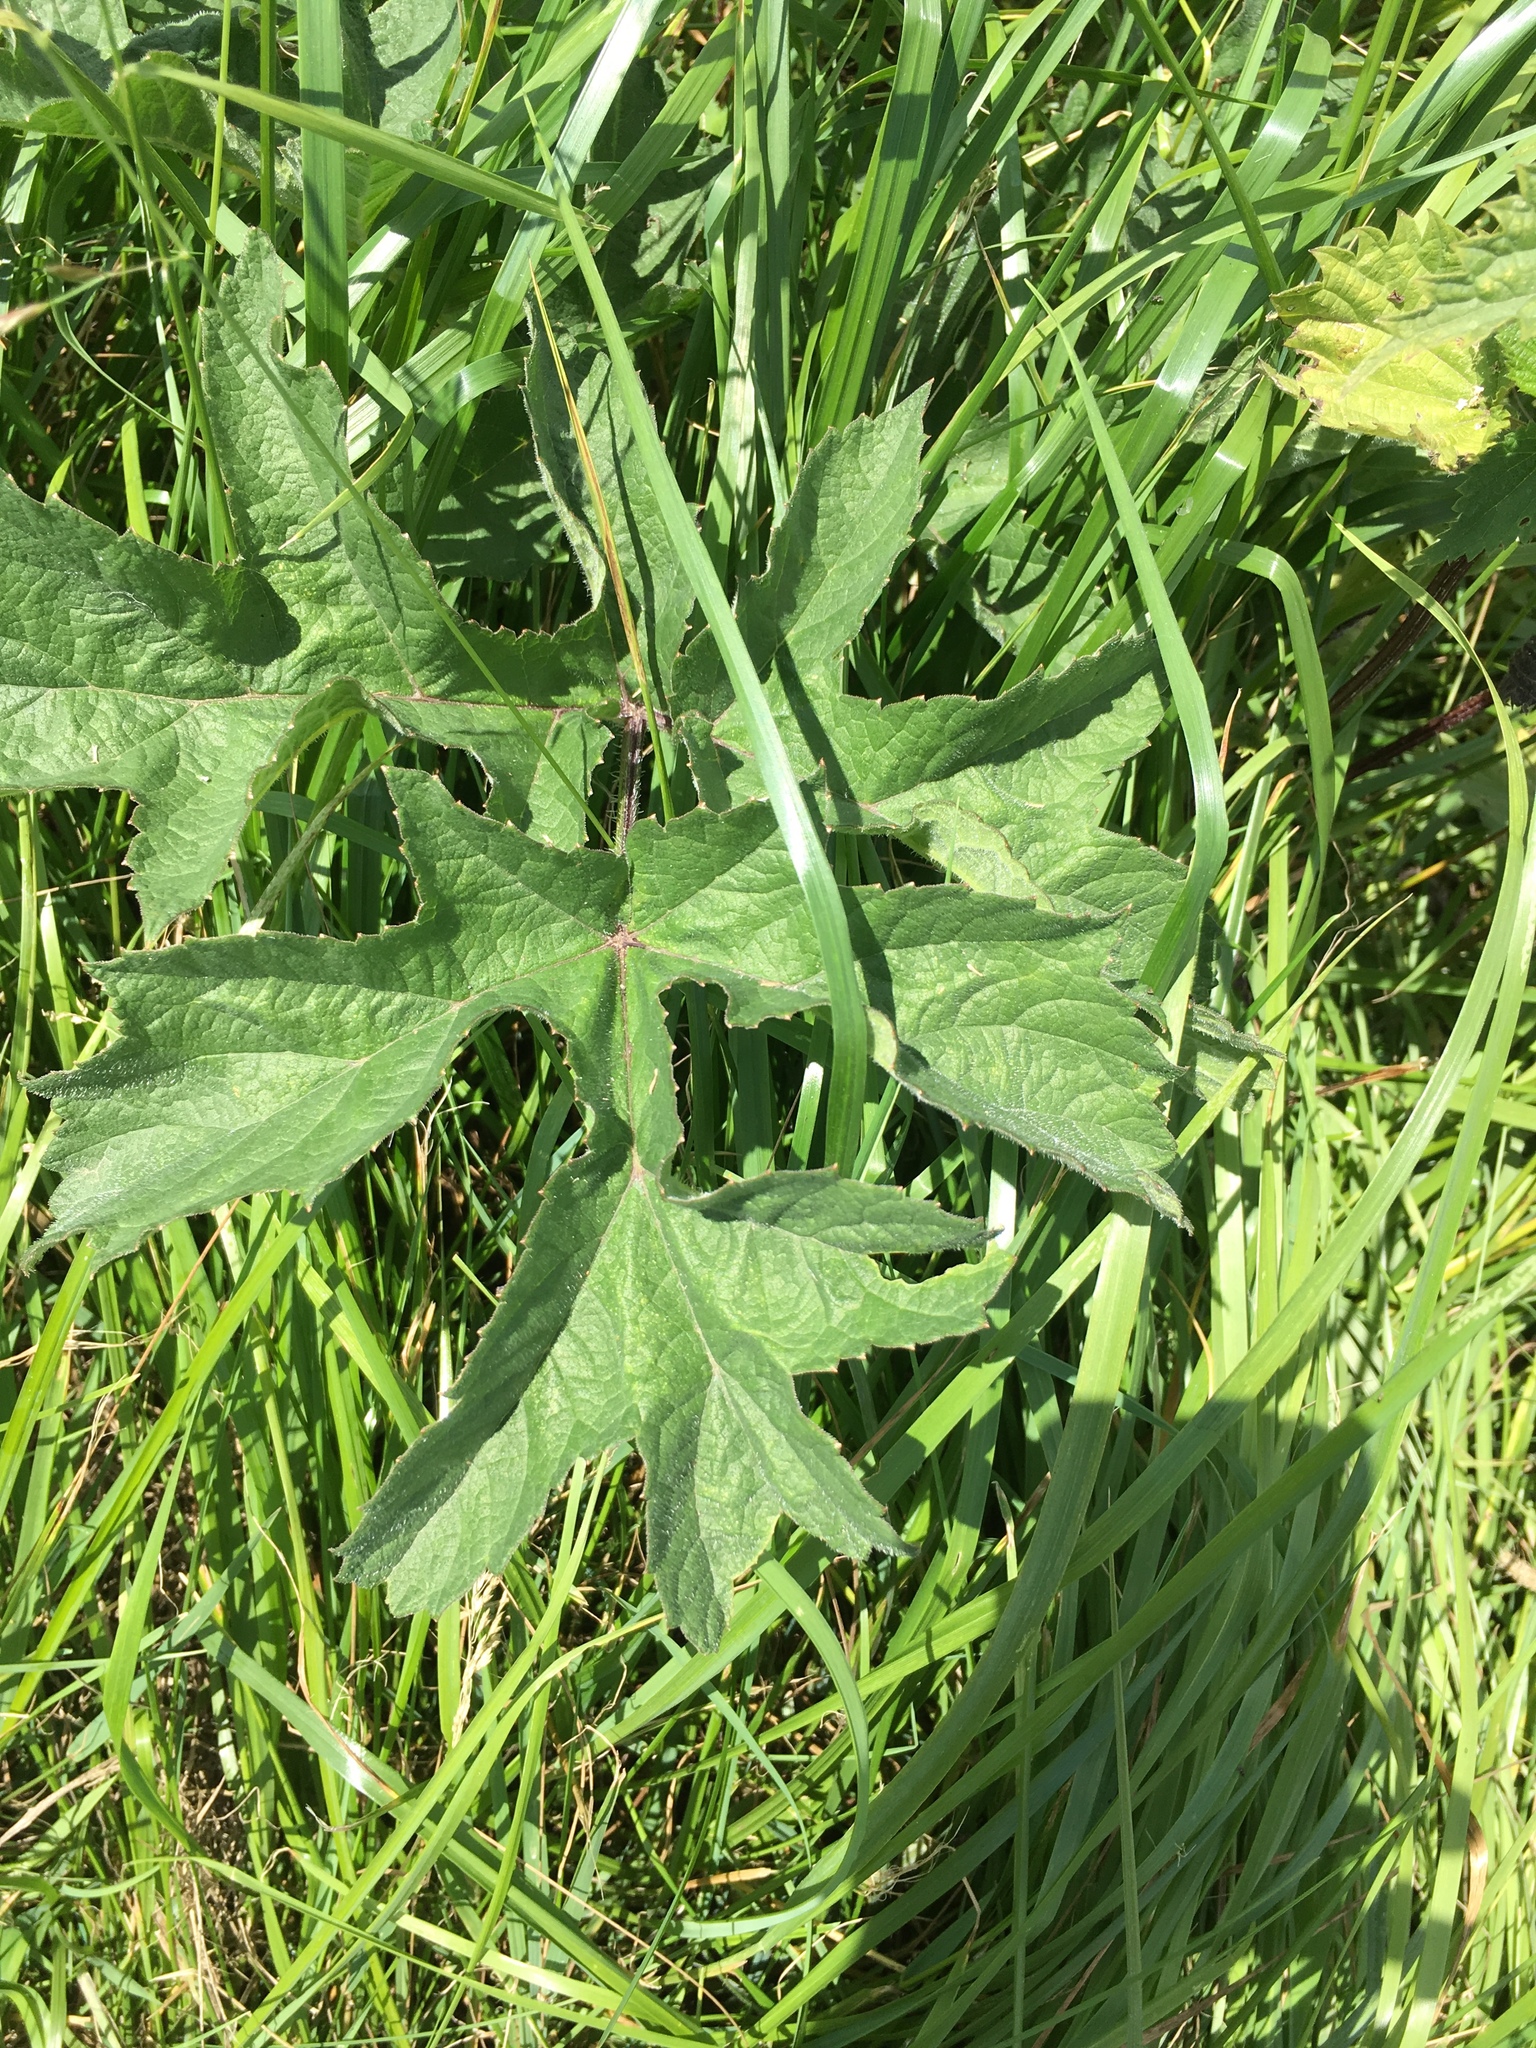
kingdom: Plantae
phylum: Tracheophyta
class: Magnoliopsida
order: Apiales
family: Apiaceae
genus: Heracleum
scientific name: Heracleum sphondylium
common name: Hogweed
